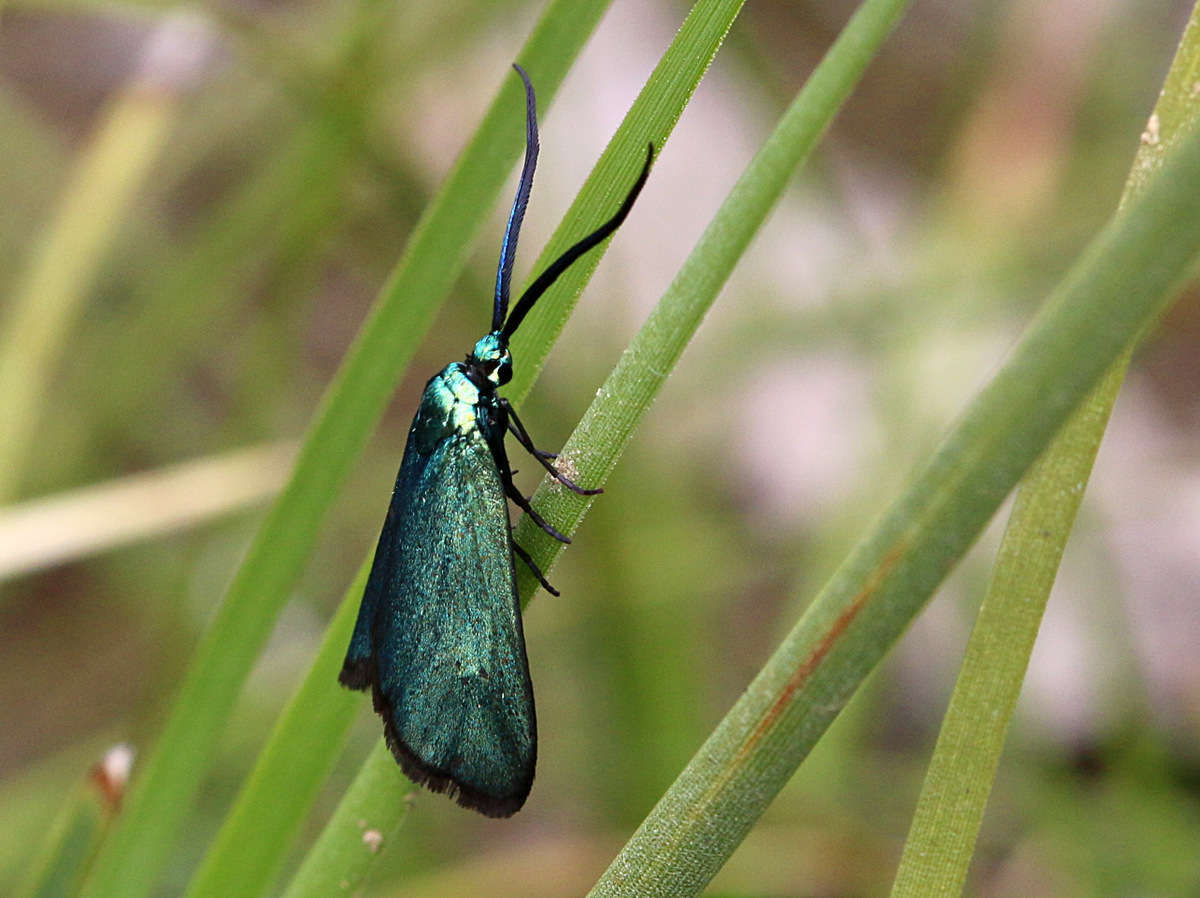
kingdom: Animalia
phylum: Arthropoda
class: Insecta
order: Lepidoptera
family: Zygaenidae
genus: Pollanisus
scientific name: Pollanisus viridipulverulenta
